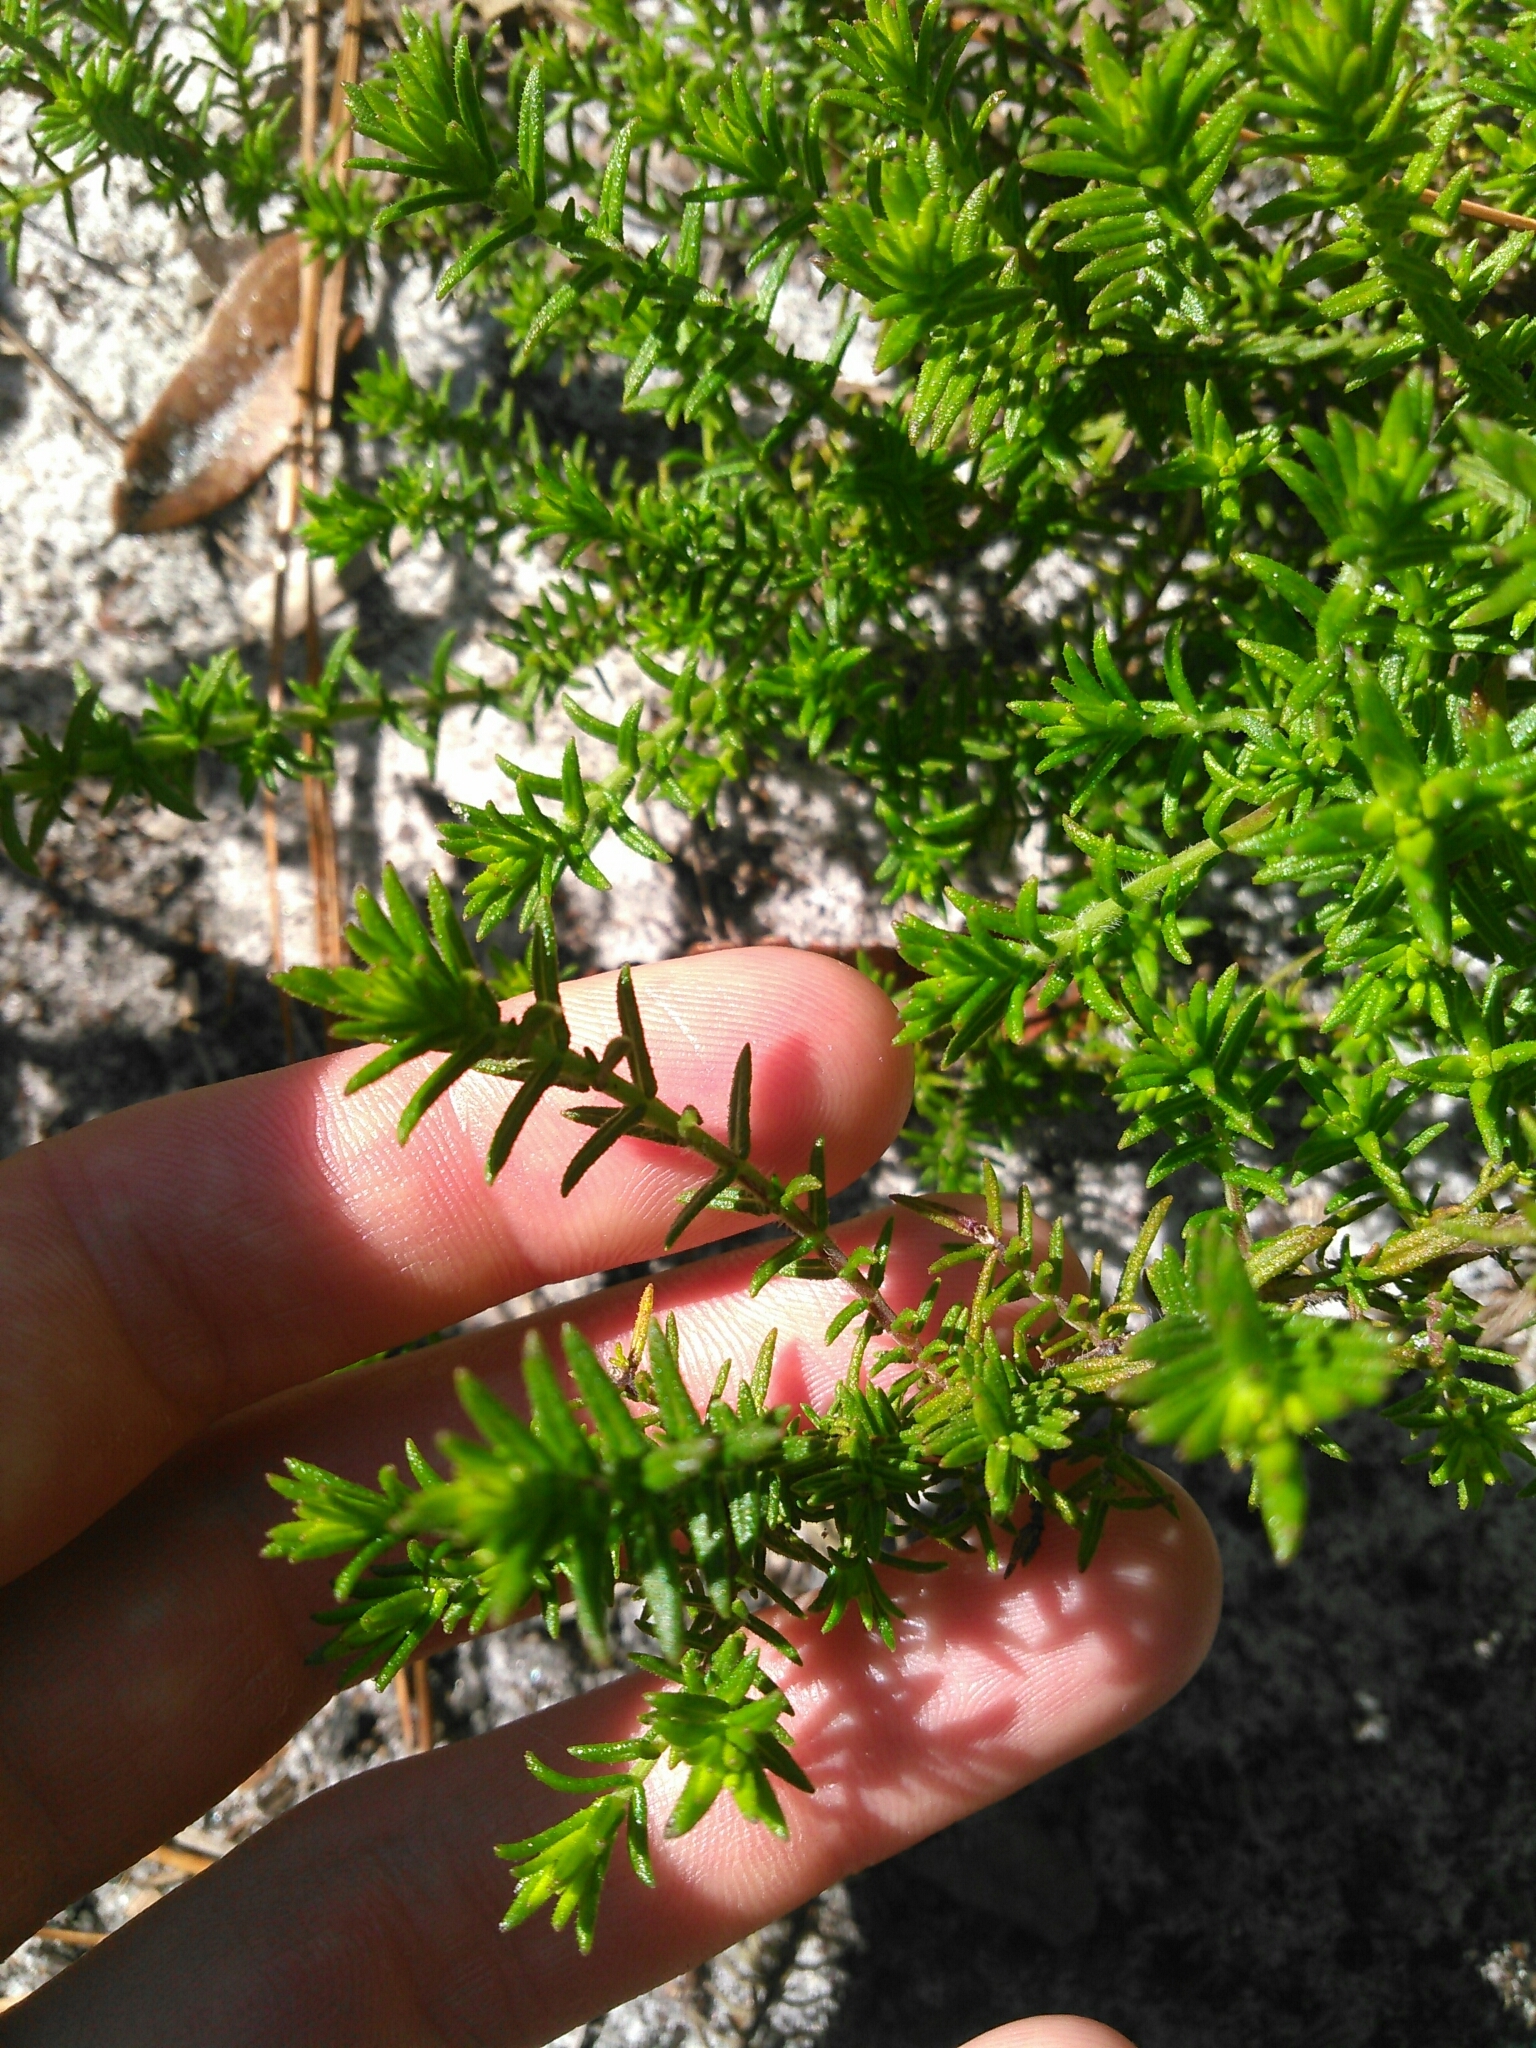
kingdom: Plantae
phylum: Tracheophyta
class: Magnoliopsida
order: Lamiales
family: Lamiaceae
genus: Piloblephis
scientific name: Piloblephis rigida
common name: Wild pennyroyal
